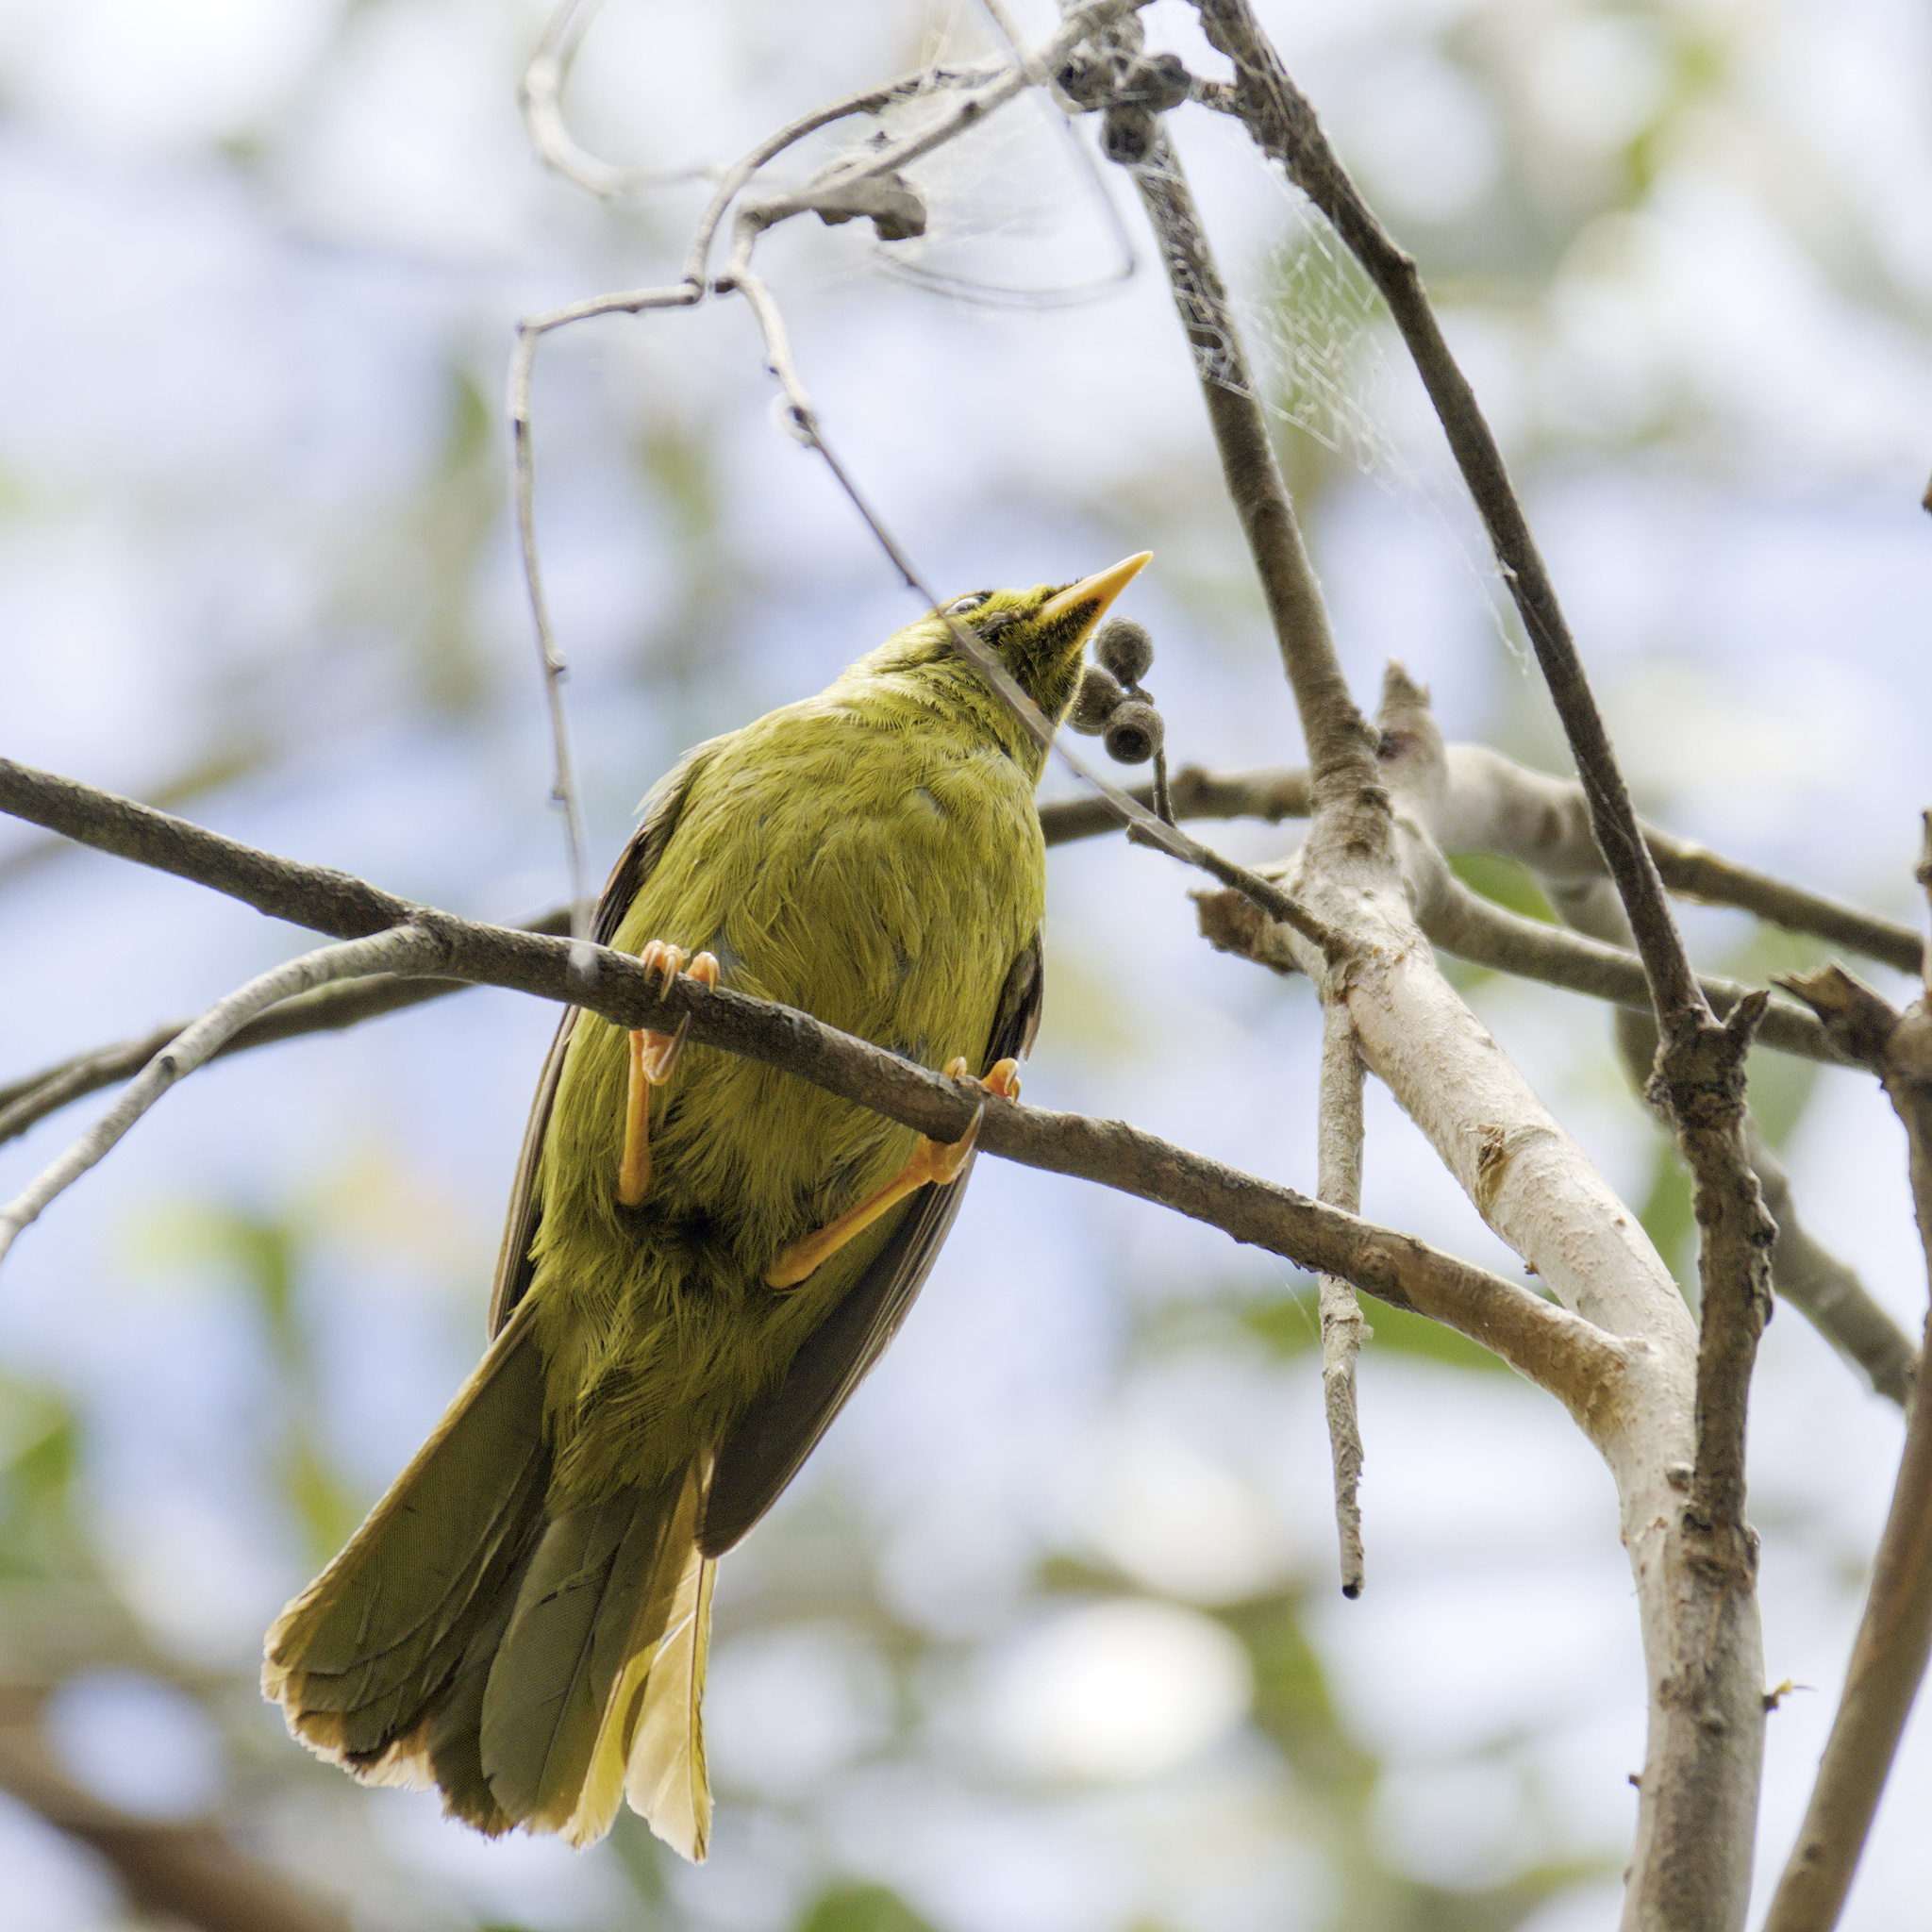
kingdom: Animalia
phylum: Chordata
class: Aves
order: Passeriformes
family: Meliphagidae
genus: Manorina
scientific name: Manorina melanophrys
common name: Bell miner
